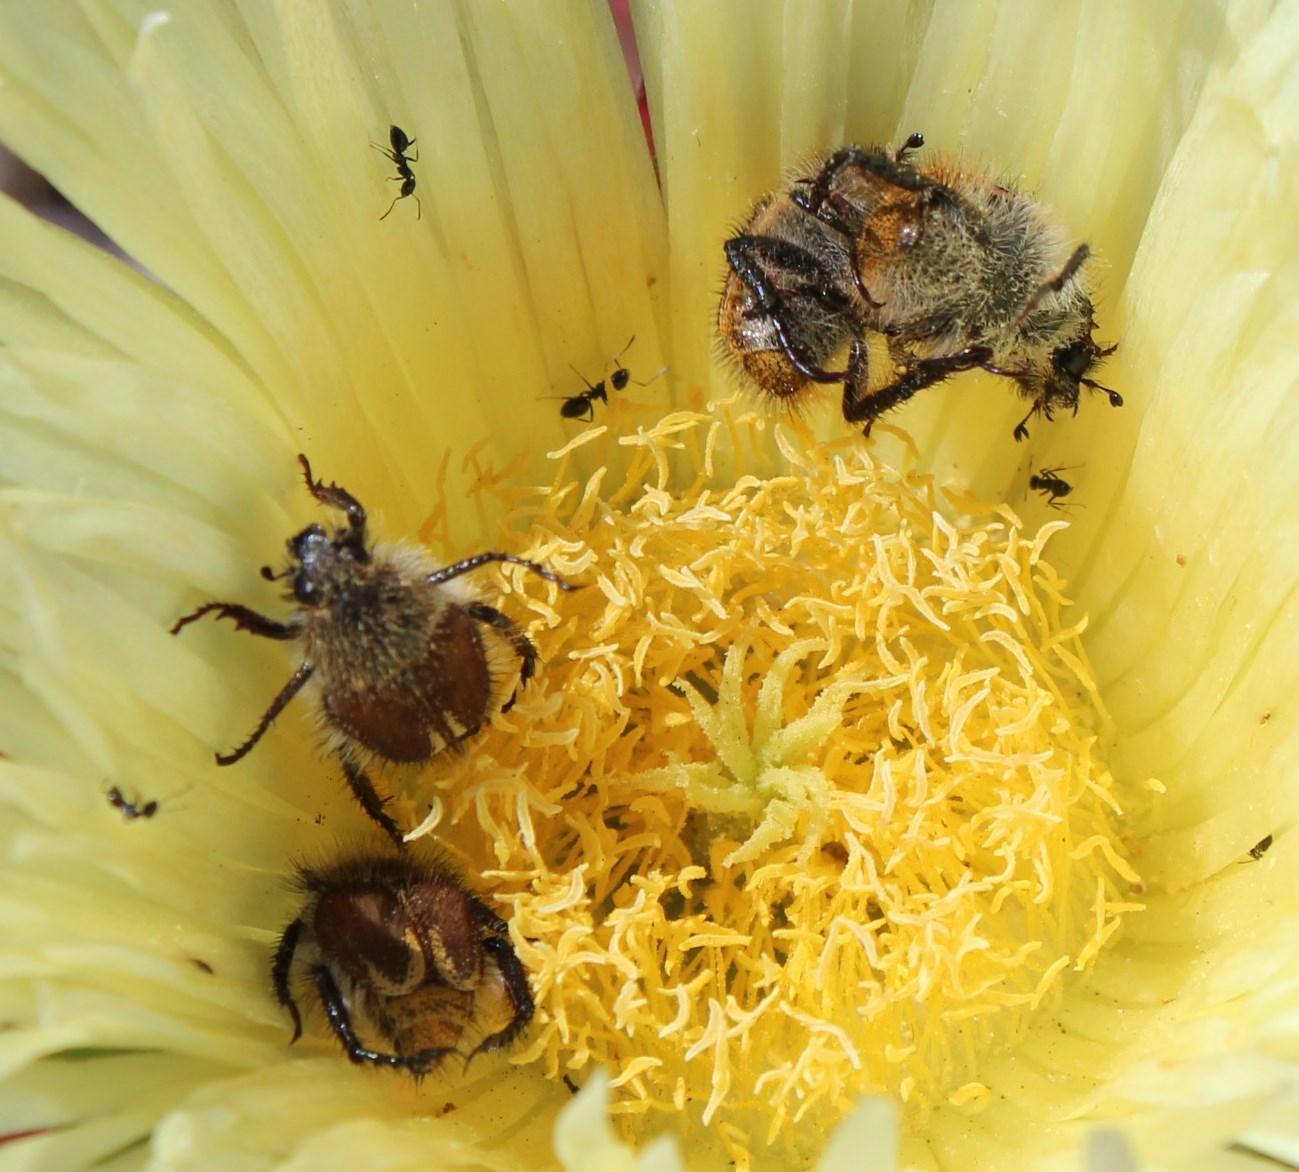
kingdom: Animalia
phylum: Arthropoda
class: Insecta
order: Hymenoptera
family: Formicidae
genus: Lepisiota
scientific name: Lepisiota capensis
